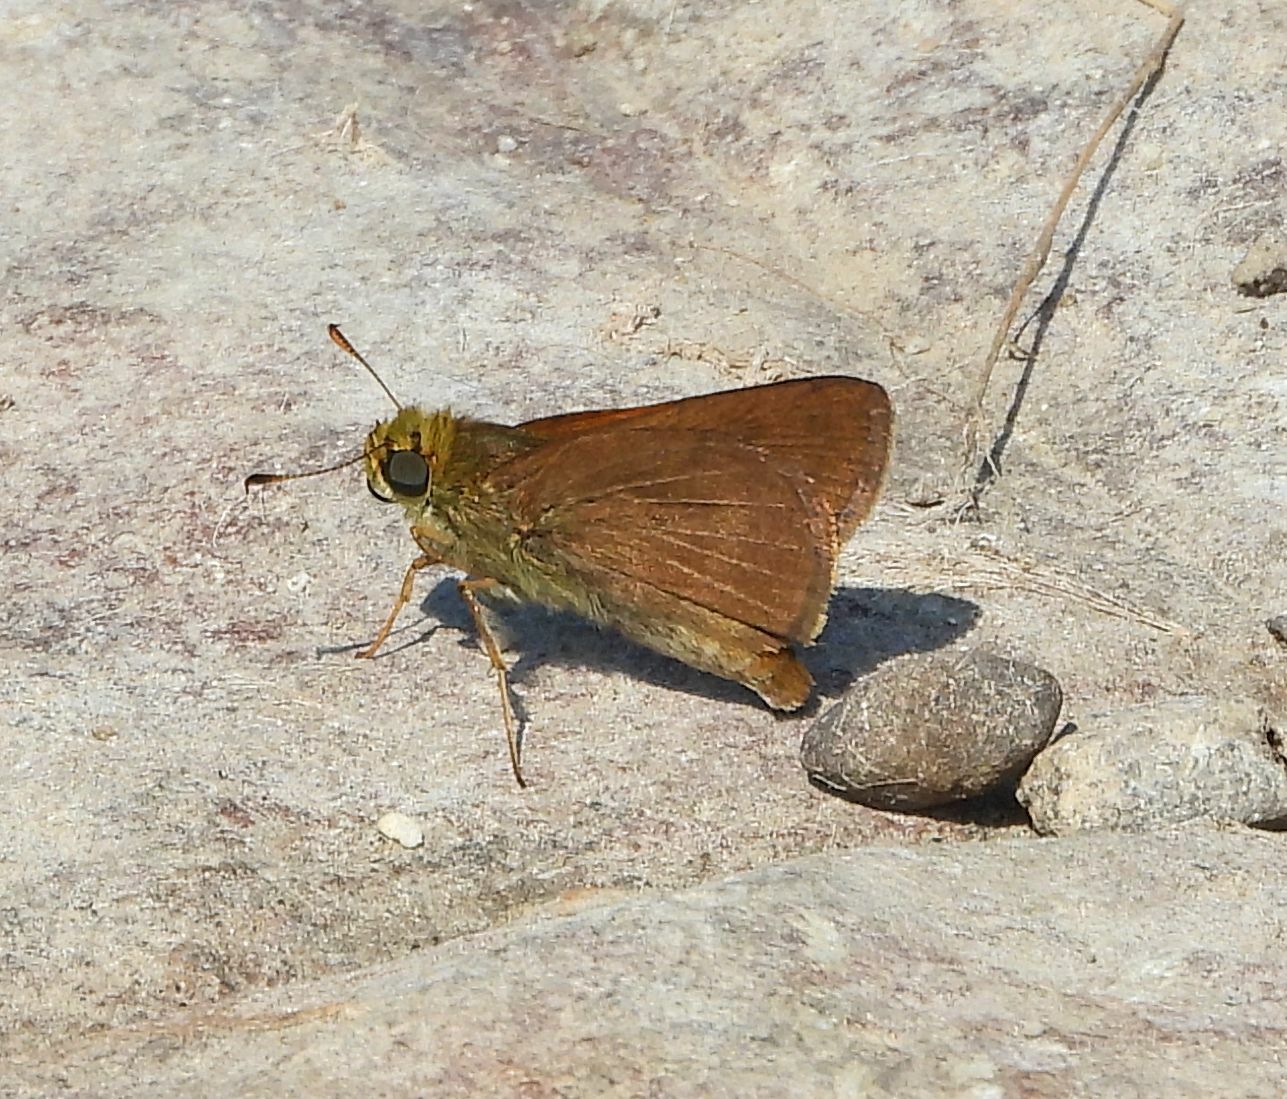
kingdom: Animalia
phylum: Arthropoda
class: Insecta
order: Lepidoptera
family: Hesperiidae
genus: Euphyes
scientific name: Euphyes vestris
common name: Dun skipper
